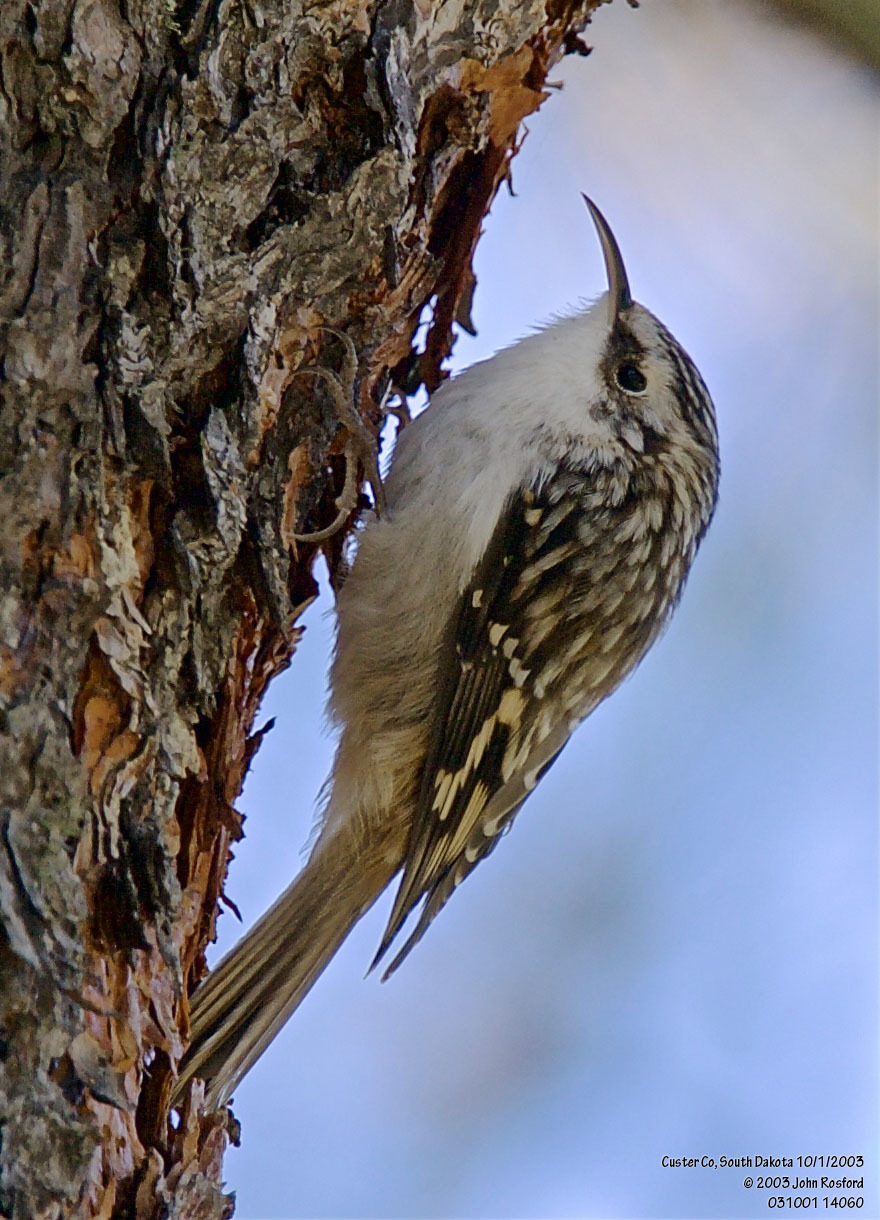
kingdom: Animalia
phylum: Chordata
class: Aves
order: Passeriformes
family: Certhiidae
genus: Certhia
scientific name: Certhia americana
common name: Brown creeper
